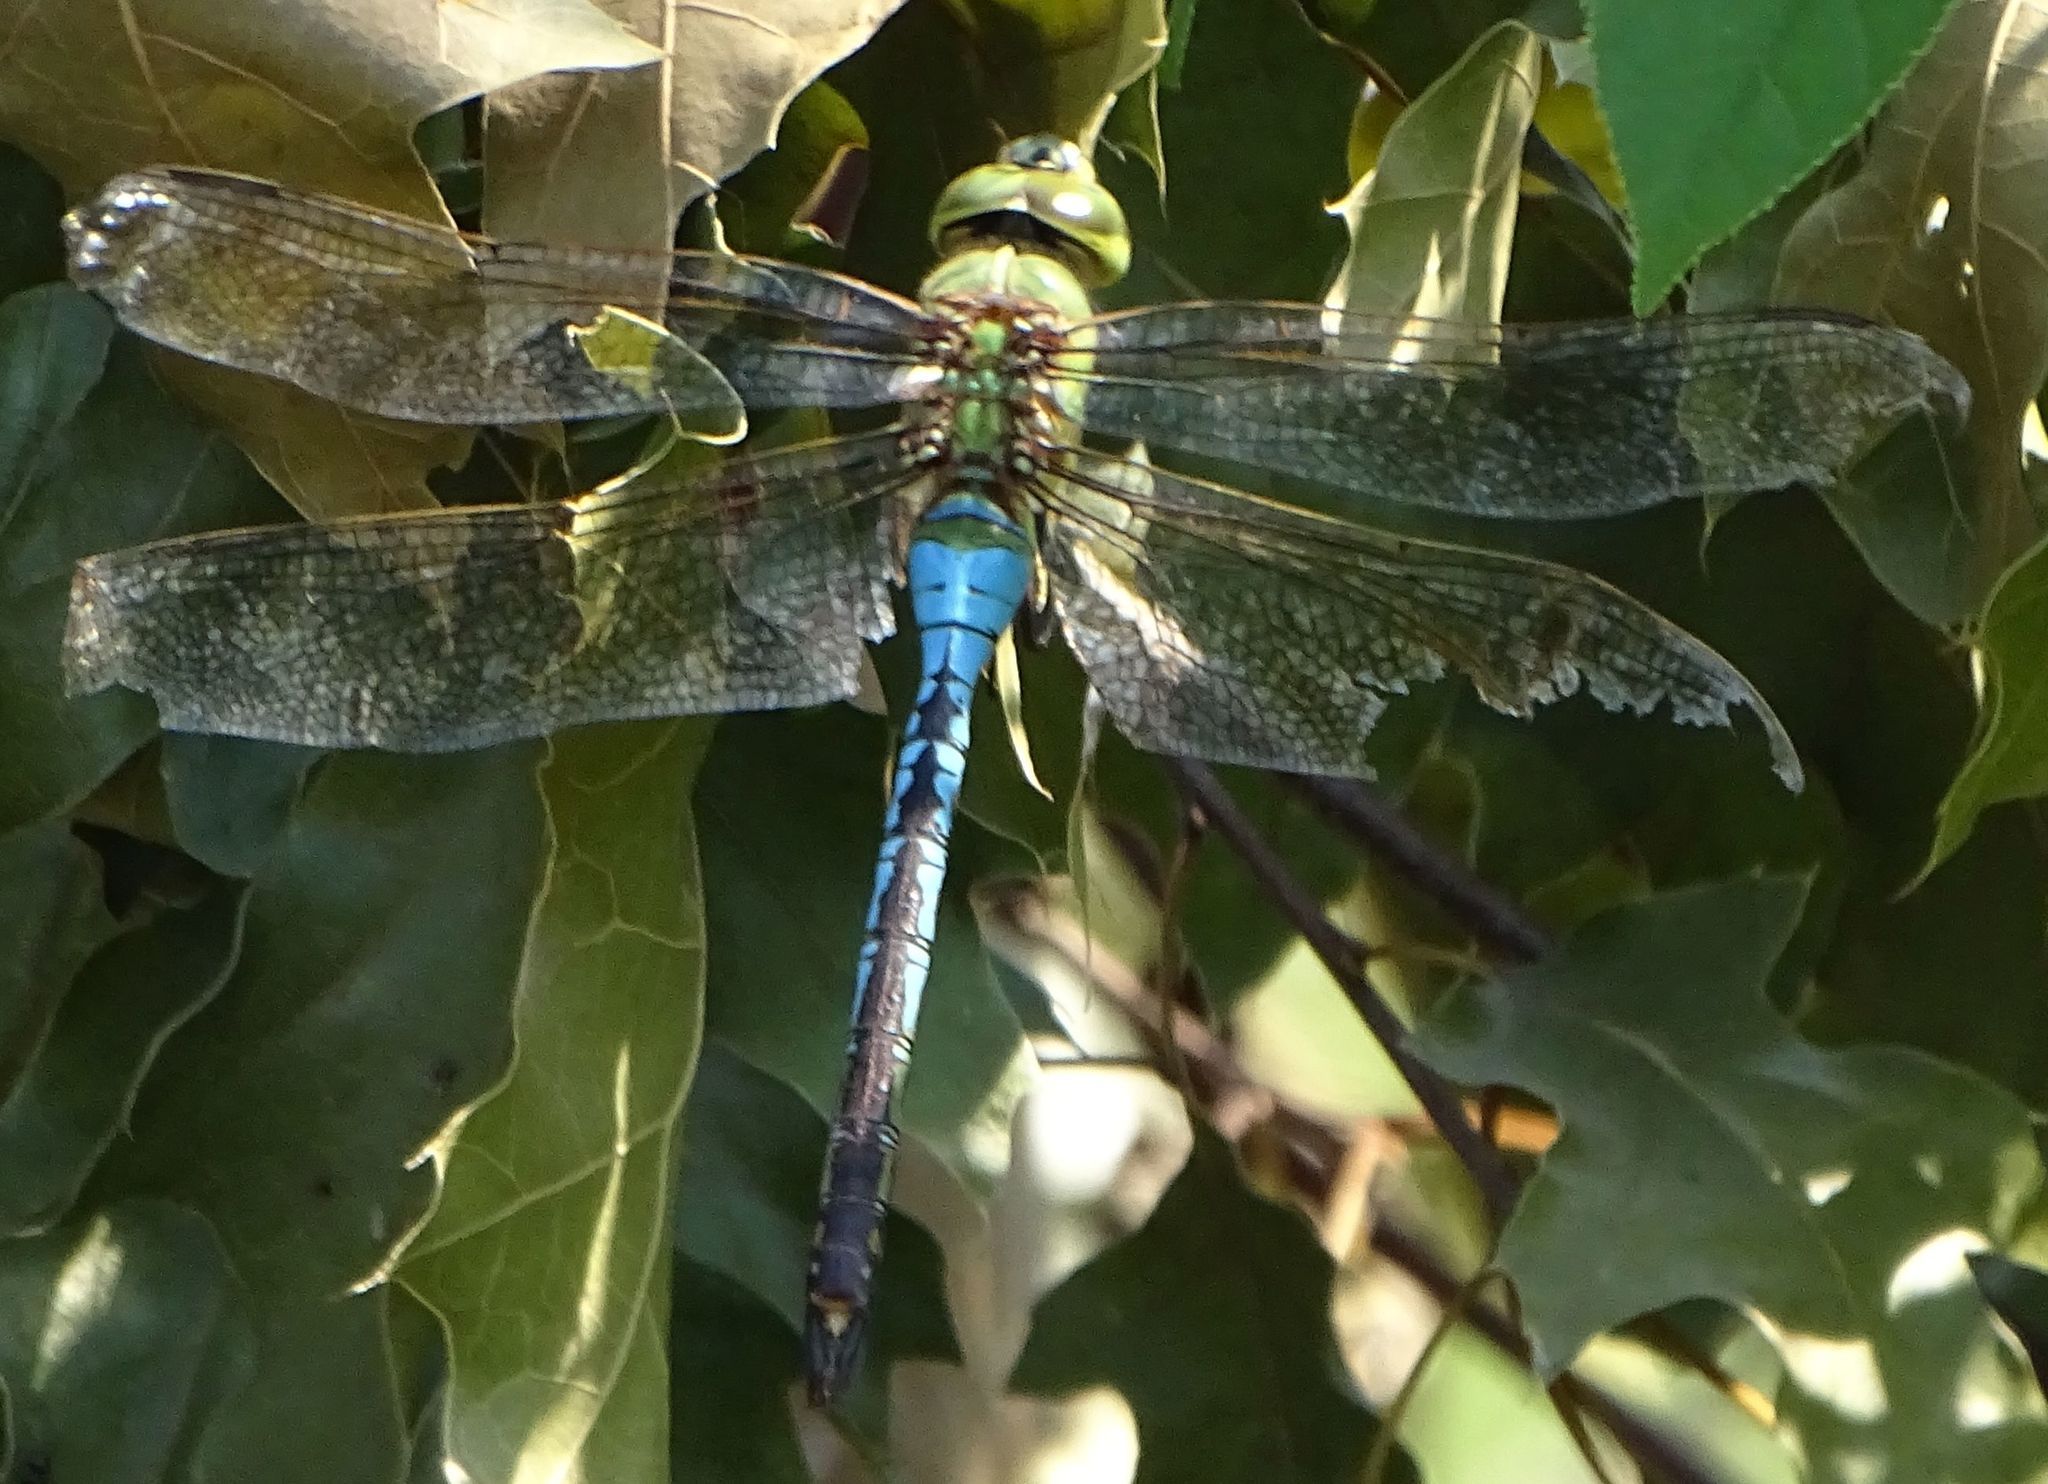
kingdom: Animalia
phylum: Arthropoda
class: Insecta
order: Odonata
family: Aeshnidae
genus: Anax
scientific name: Anax junius
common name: Common green darner
